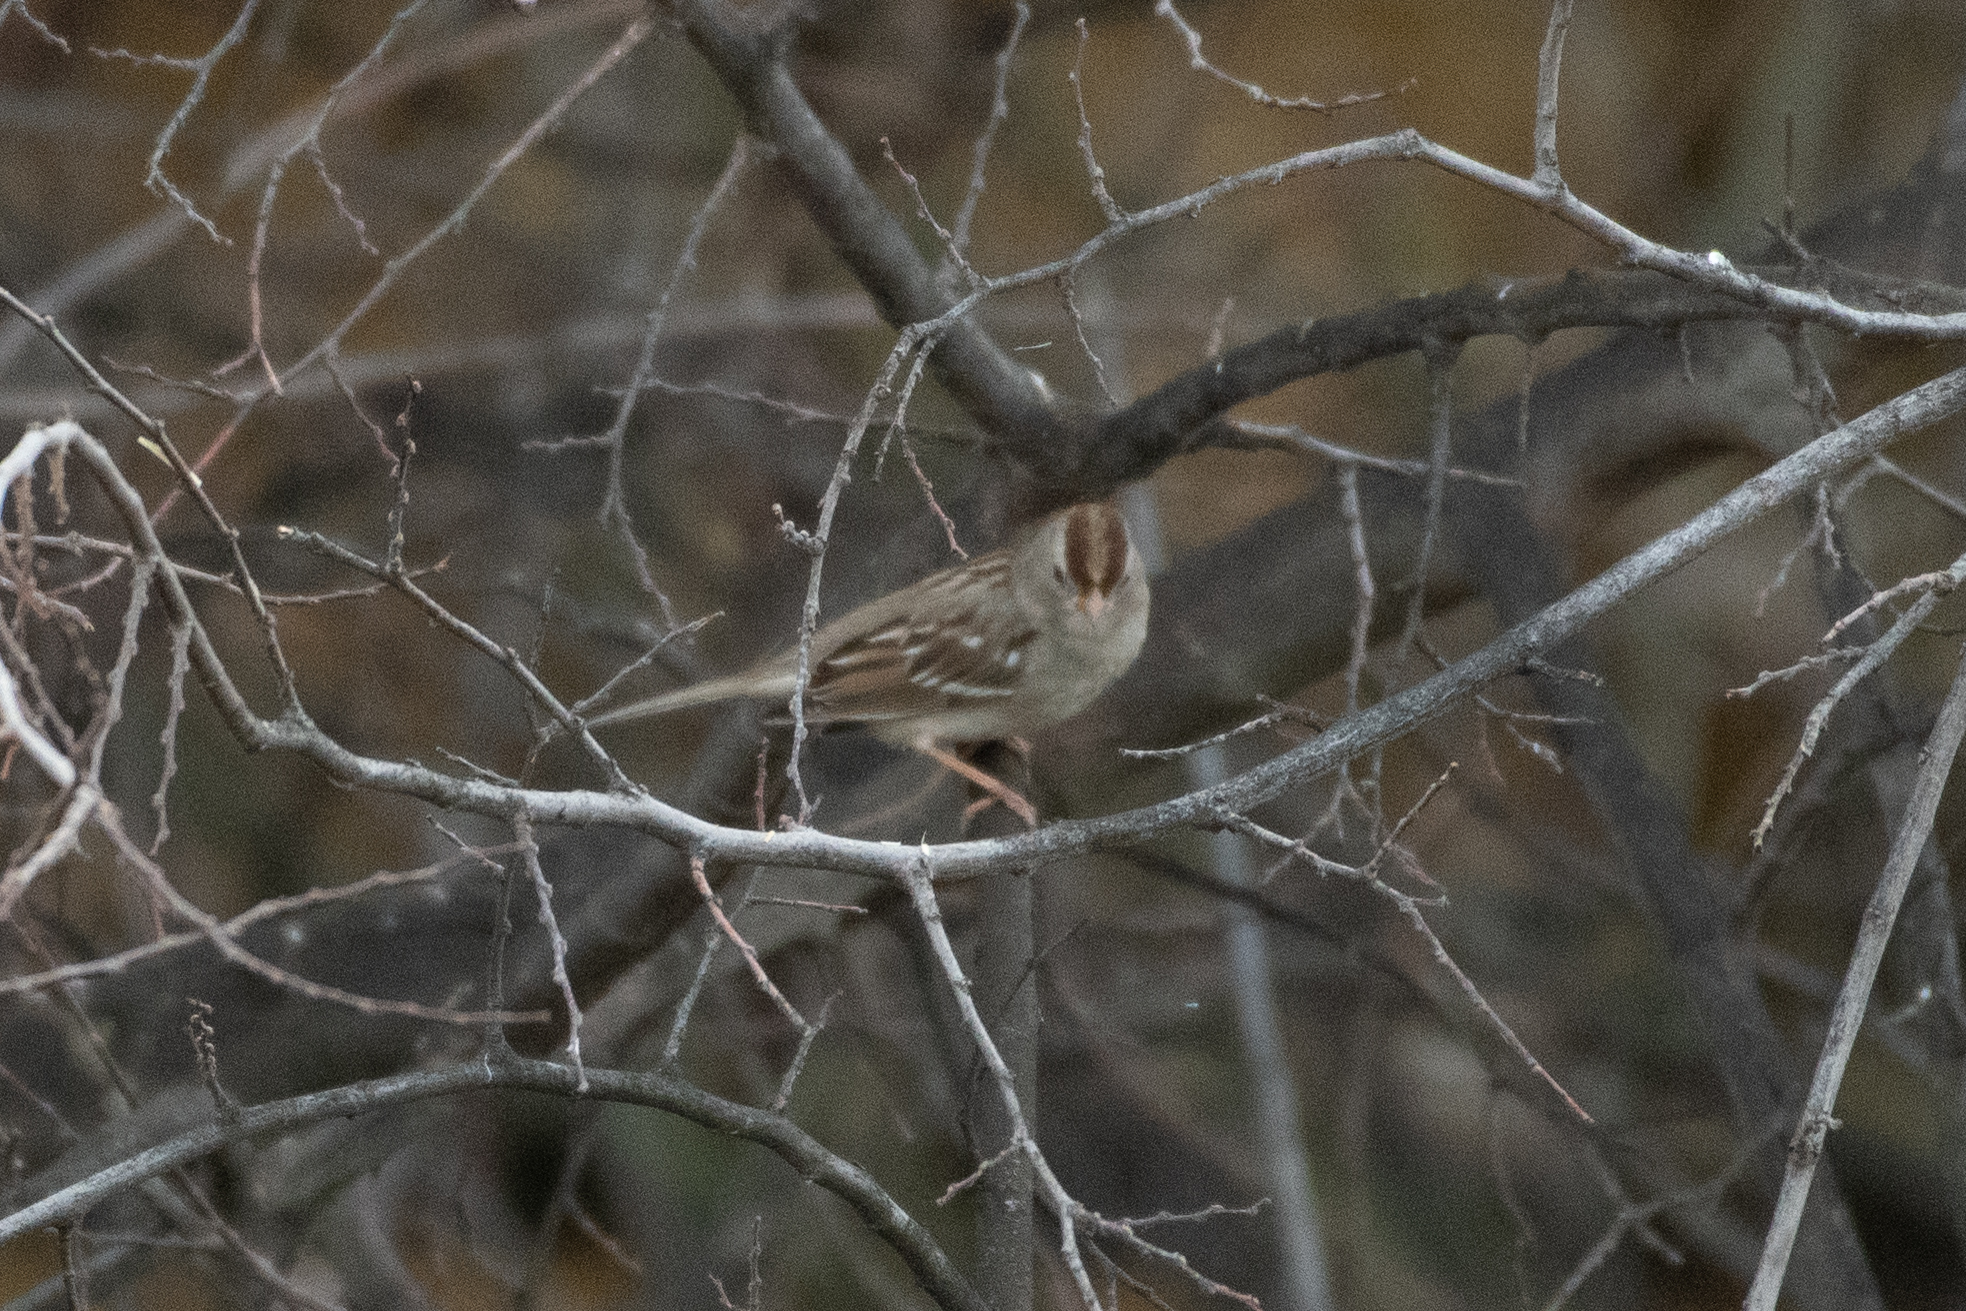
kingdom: Animalia
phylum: Chordata
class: Aves
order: Passeriformes
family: Passerellidae
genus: Zonotrichia
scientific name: Zonotrichia leucophrys
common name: White-crowned sparrow
